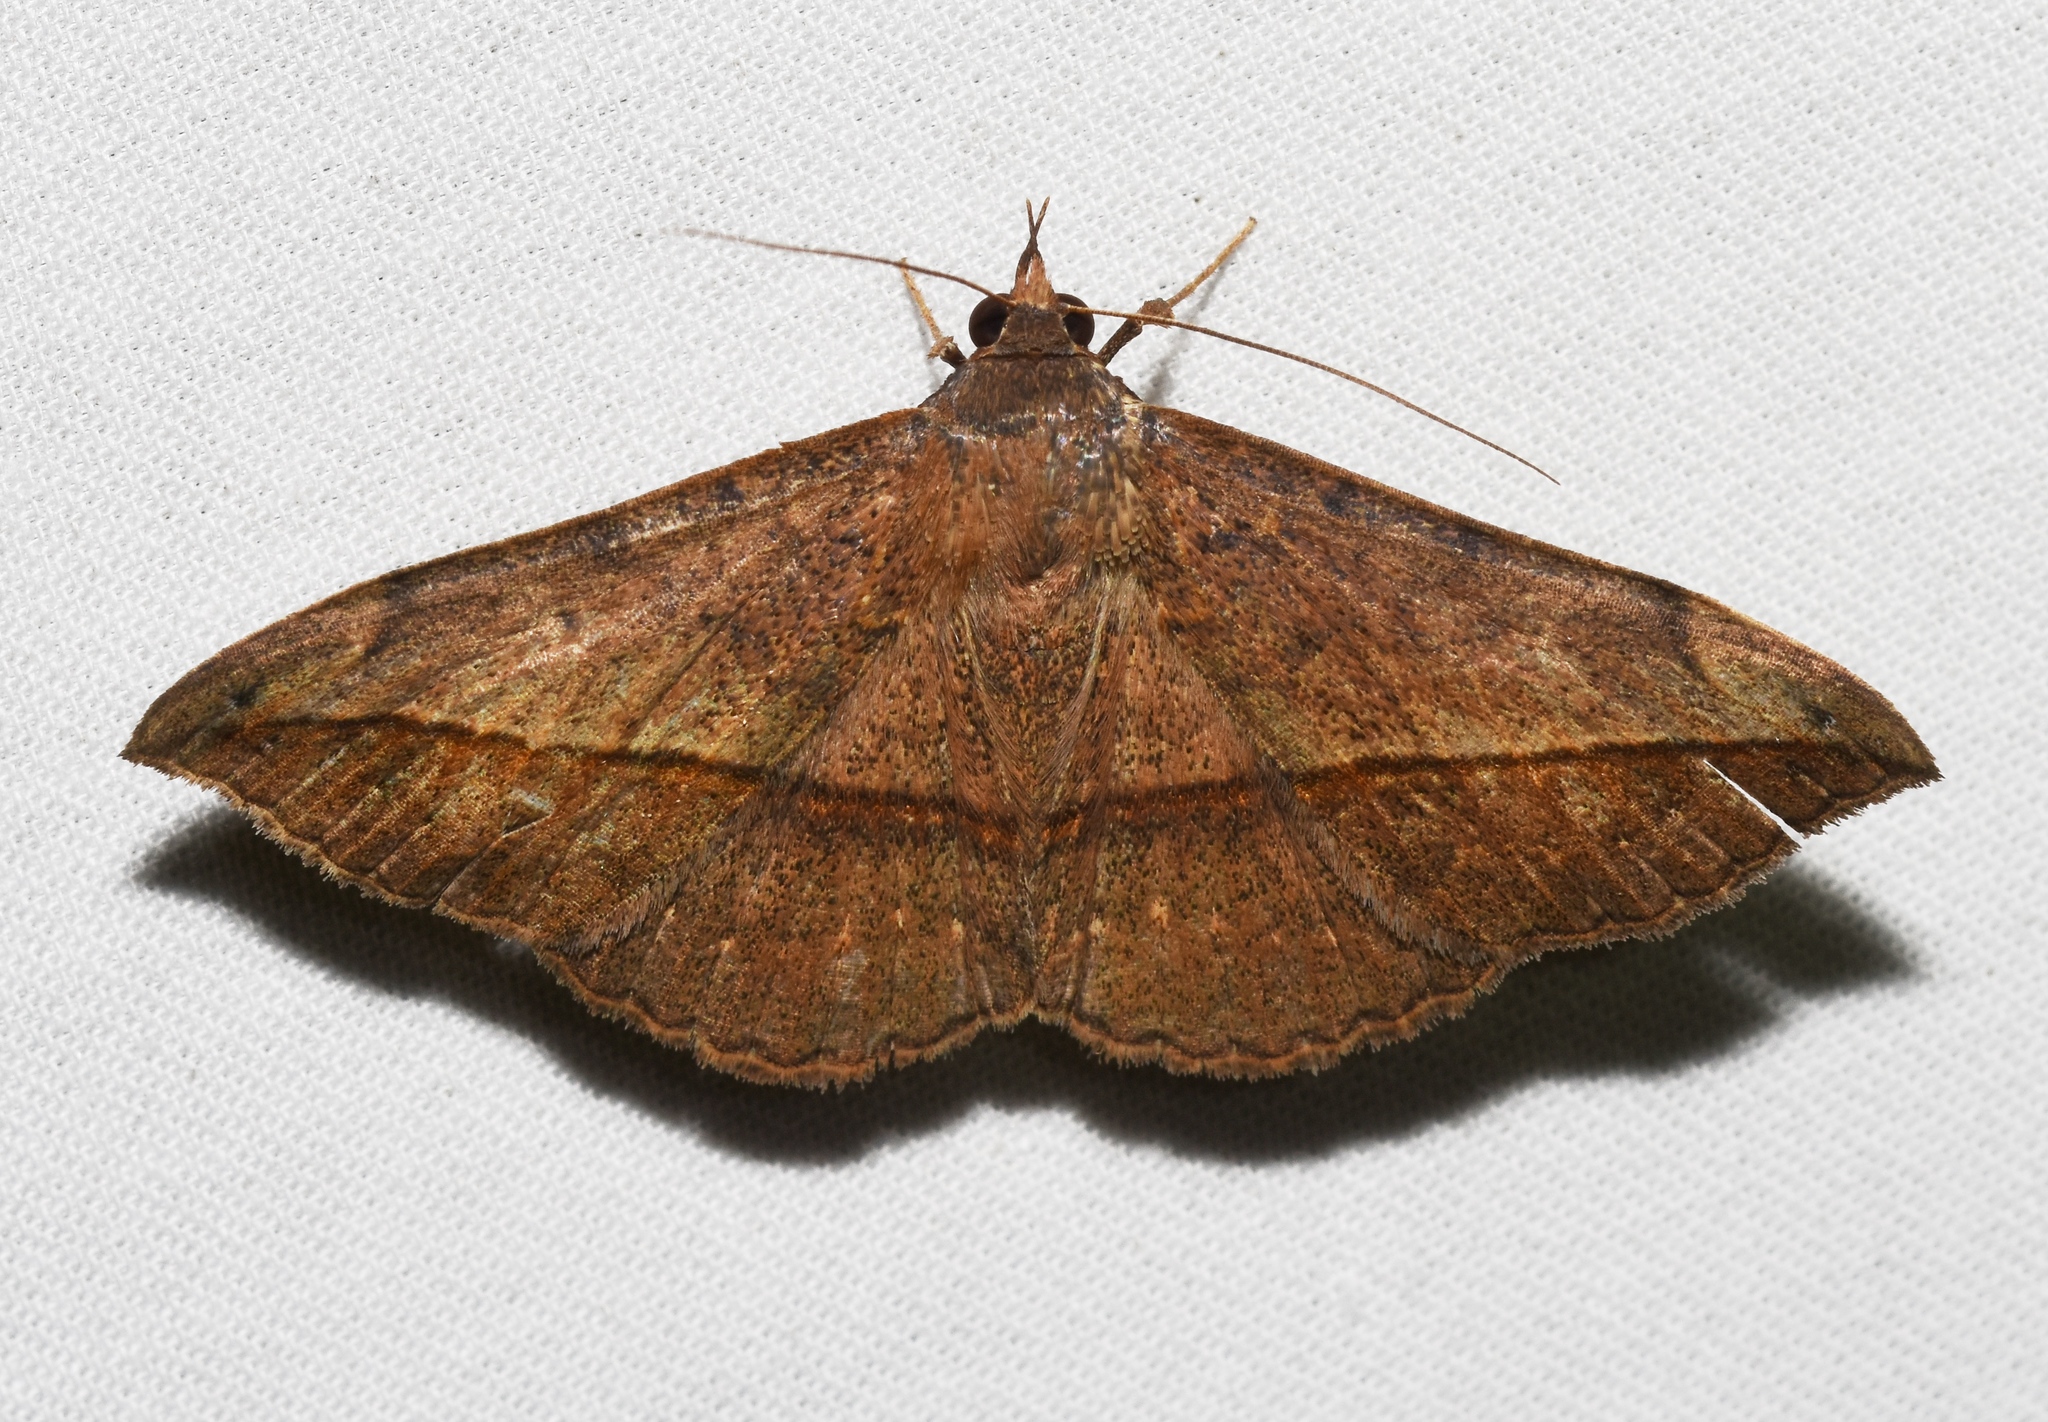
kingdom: Animalia
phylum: Arthropoda
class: Insecta
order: Lepidoptera
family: Erebidae
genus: Anticarsia
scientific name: Anticarsia gemmatalis
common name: Cutworm moth
